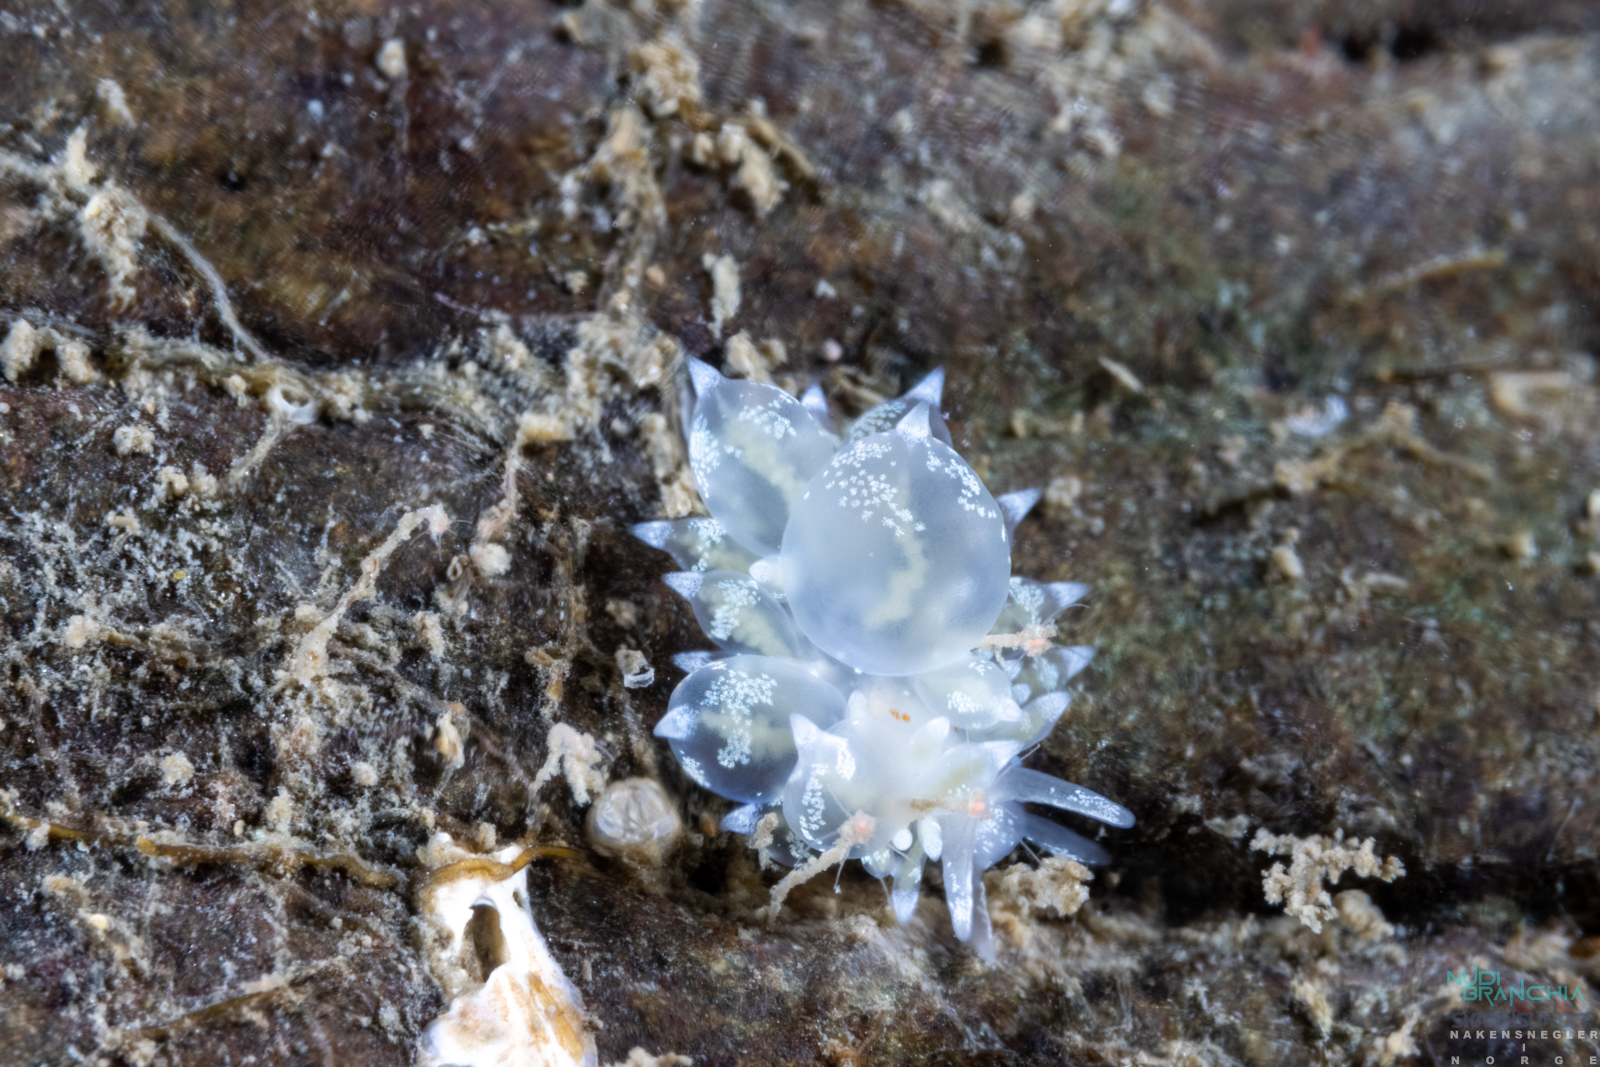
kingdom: Animalia
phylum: Mollusca
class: Gastropoda
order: Nudibranchia
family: Eubranchidae
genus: Amphorina
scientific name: Amphorina pallida
